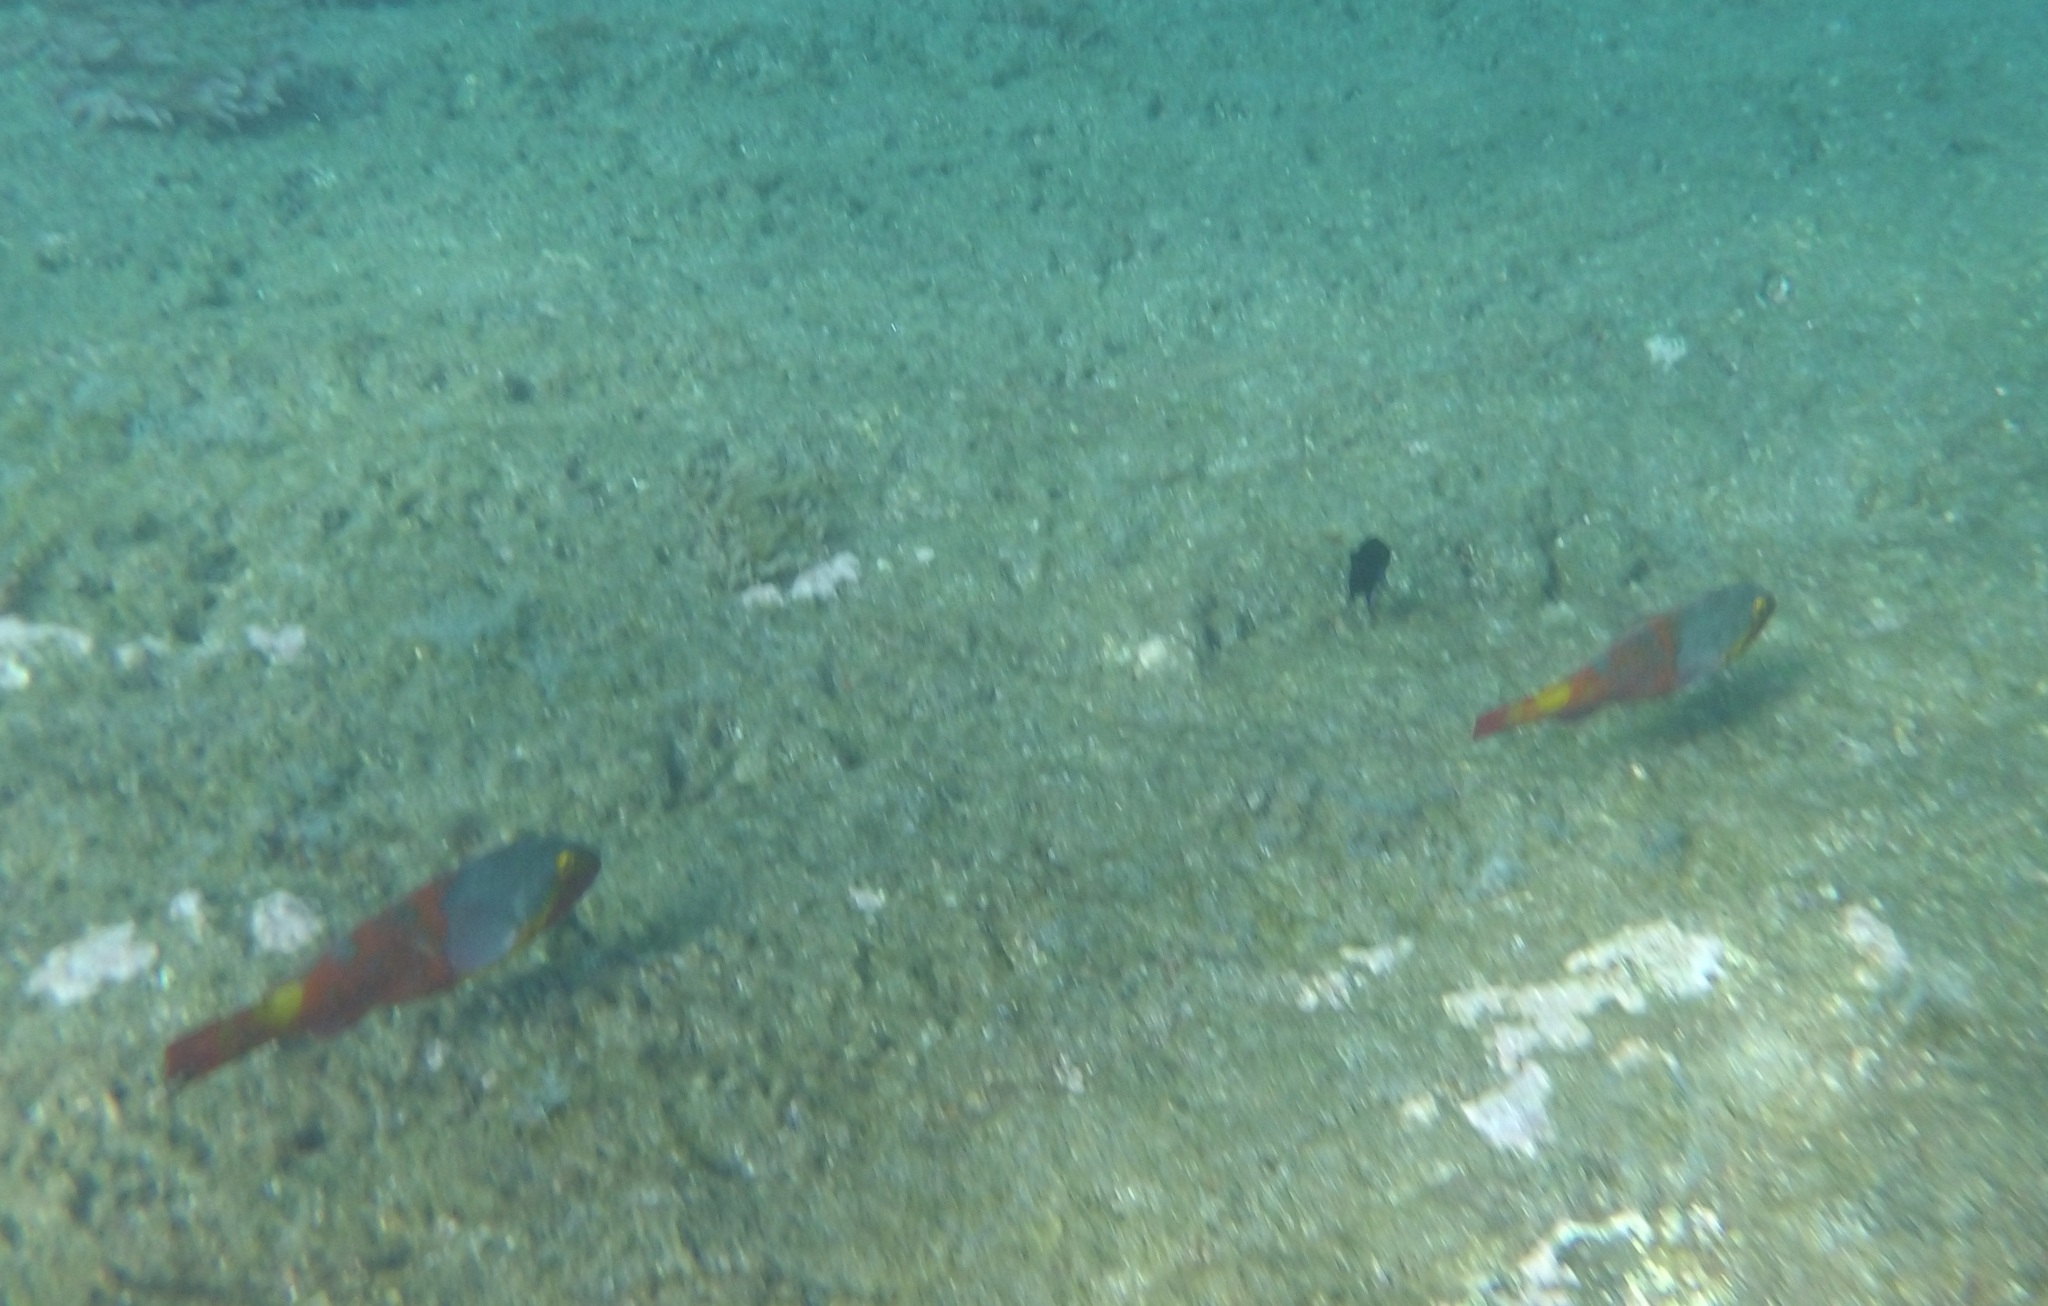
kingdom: Animalia
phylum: Chordata
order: Perciformes
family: Scaridae
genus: Sparisoma
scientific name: Sparisoma cretense
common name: Parrotfish
